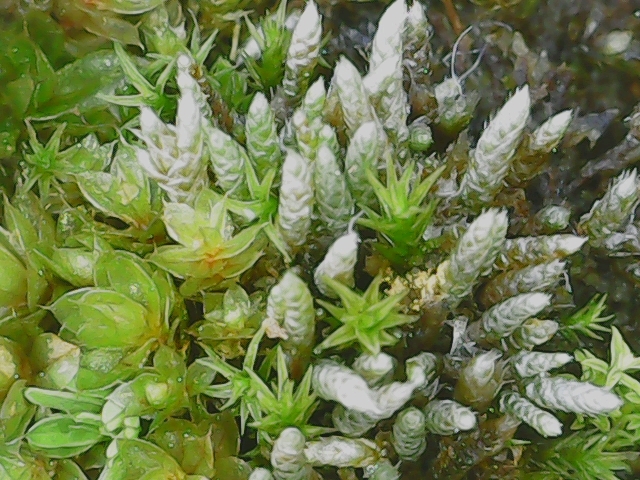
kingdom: Plantae
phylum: Bryophyta
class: Bryopsida
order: Bryales
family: Bryaceae
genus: Bryum
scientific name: Bryum argenteum
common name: Silver-moss
